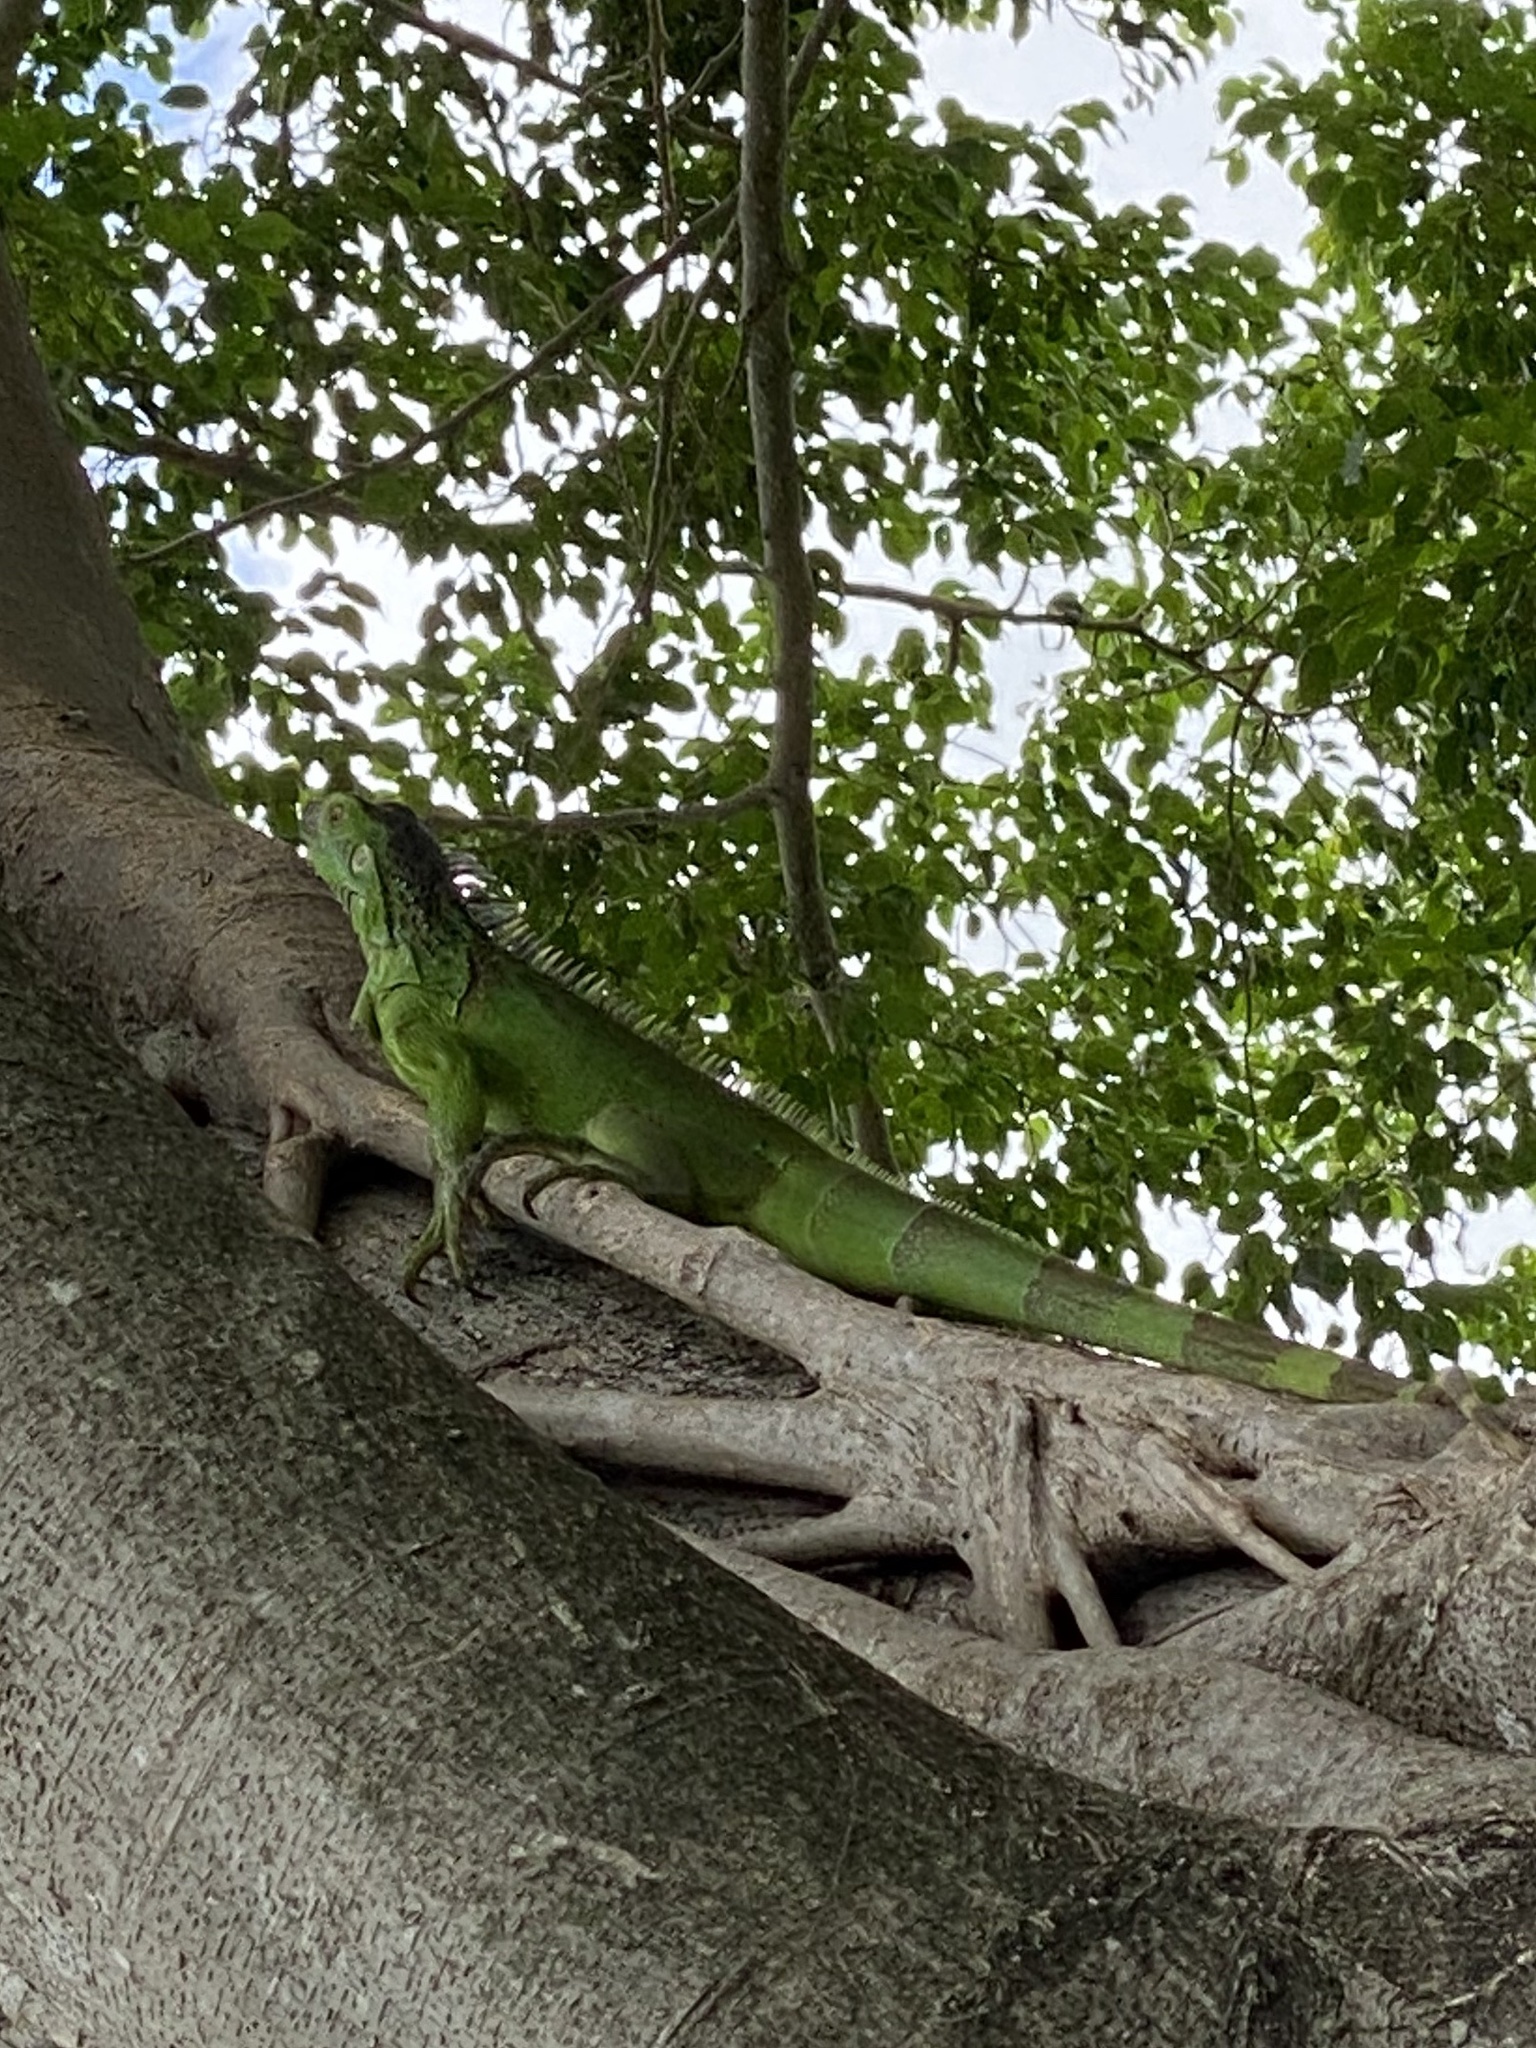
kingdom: Animalia
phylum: Chordata
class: Squamata
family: Iguanidae
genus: Iguana
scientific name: Iguana iguana
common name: Green iguana
